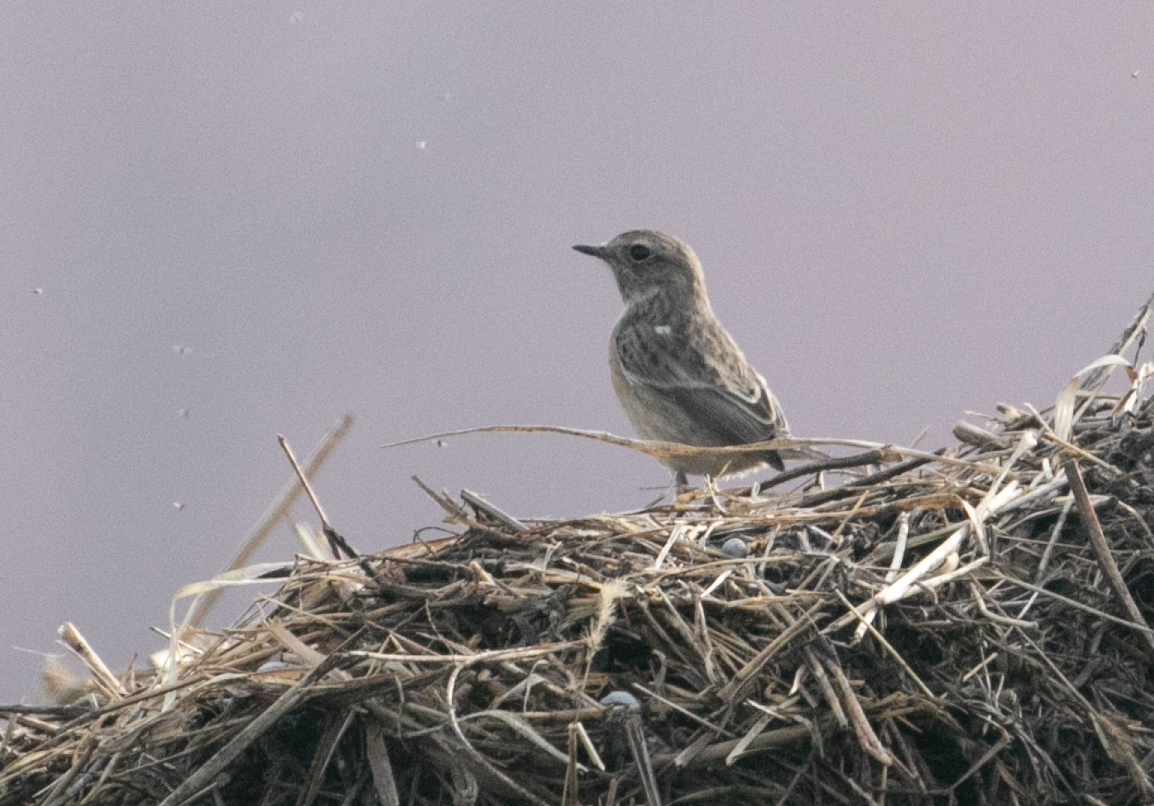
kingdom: Animalia
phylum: Chordata
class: Aves
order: Passeriformes
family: Muscicapidae
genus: Saxicola
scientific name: Saxicola rubicola
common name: European stonechat
